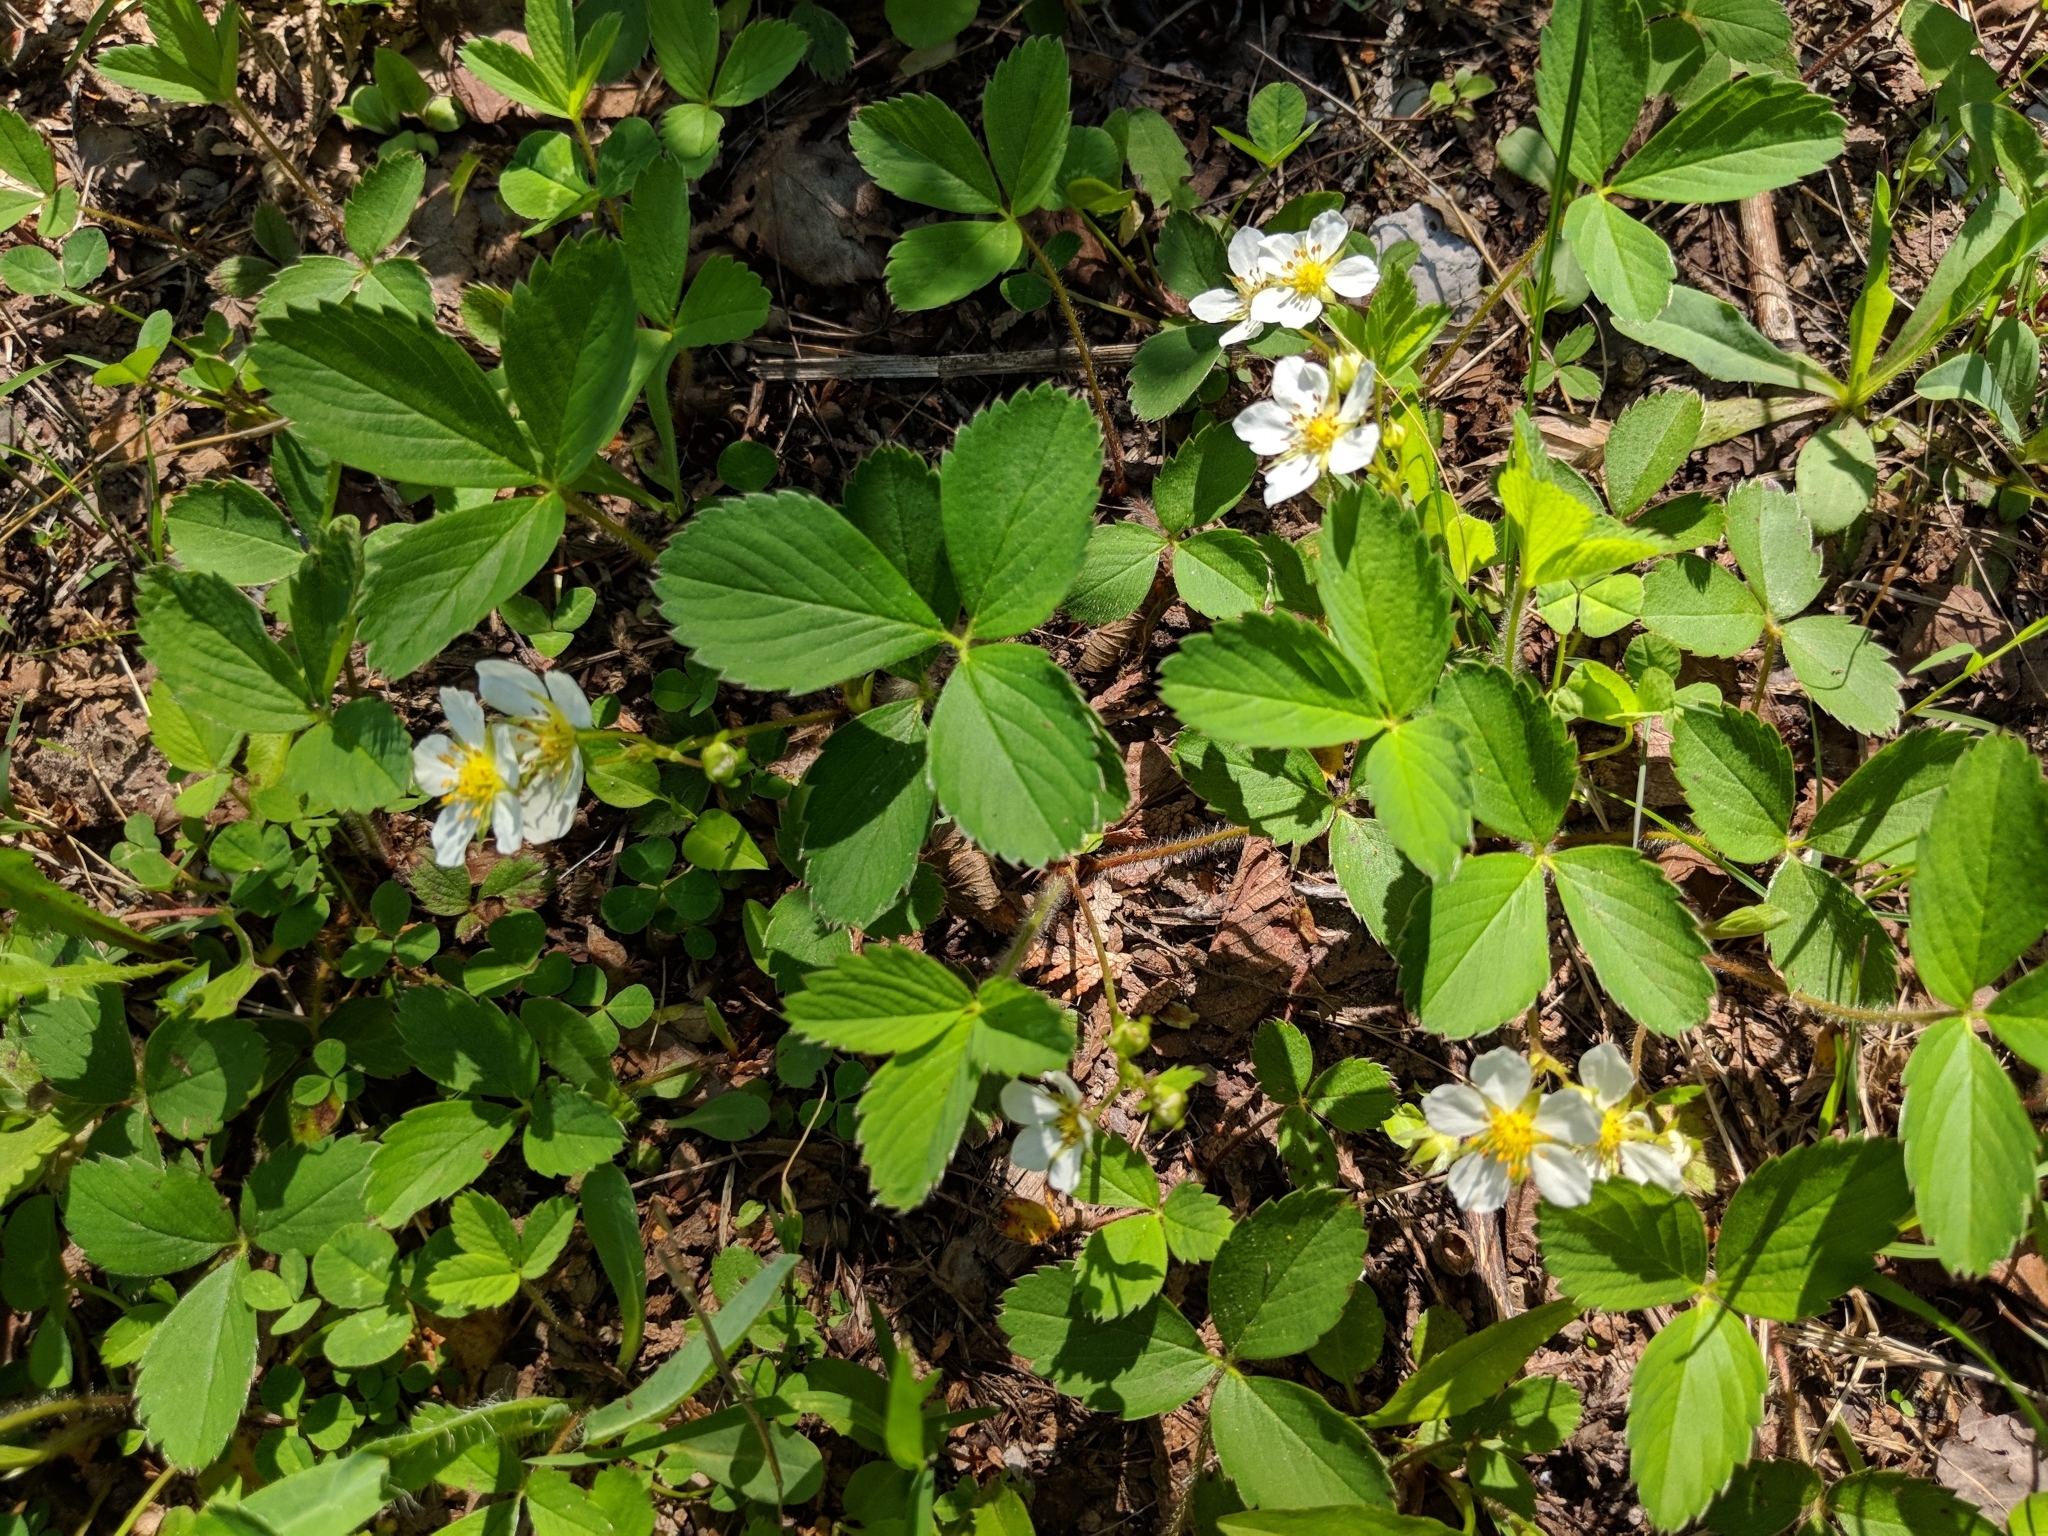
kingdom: Plantae
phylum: Tracheophyta
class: Magnoliopsida
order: Rosales
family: Rosaceae
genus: Fragaria
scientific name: Fragaria virginiana
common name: Thickleaved wild strawberry
